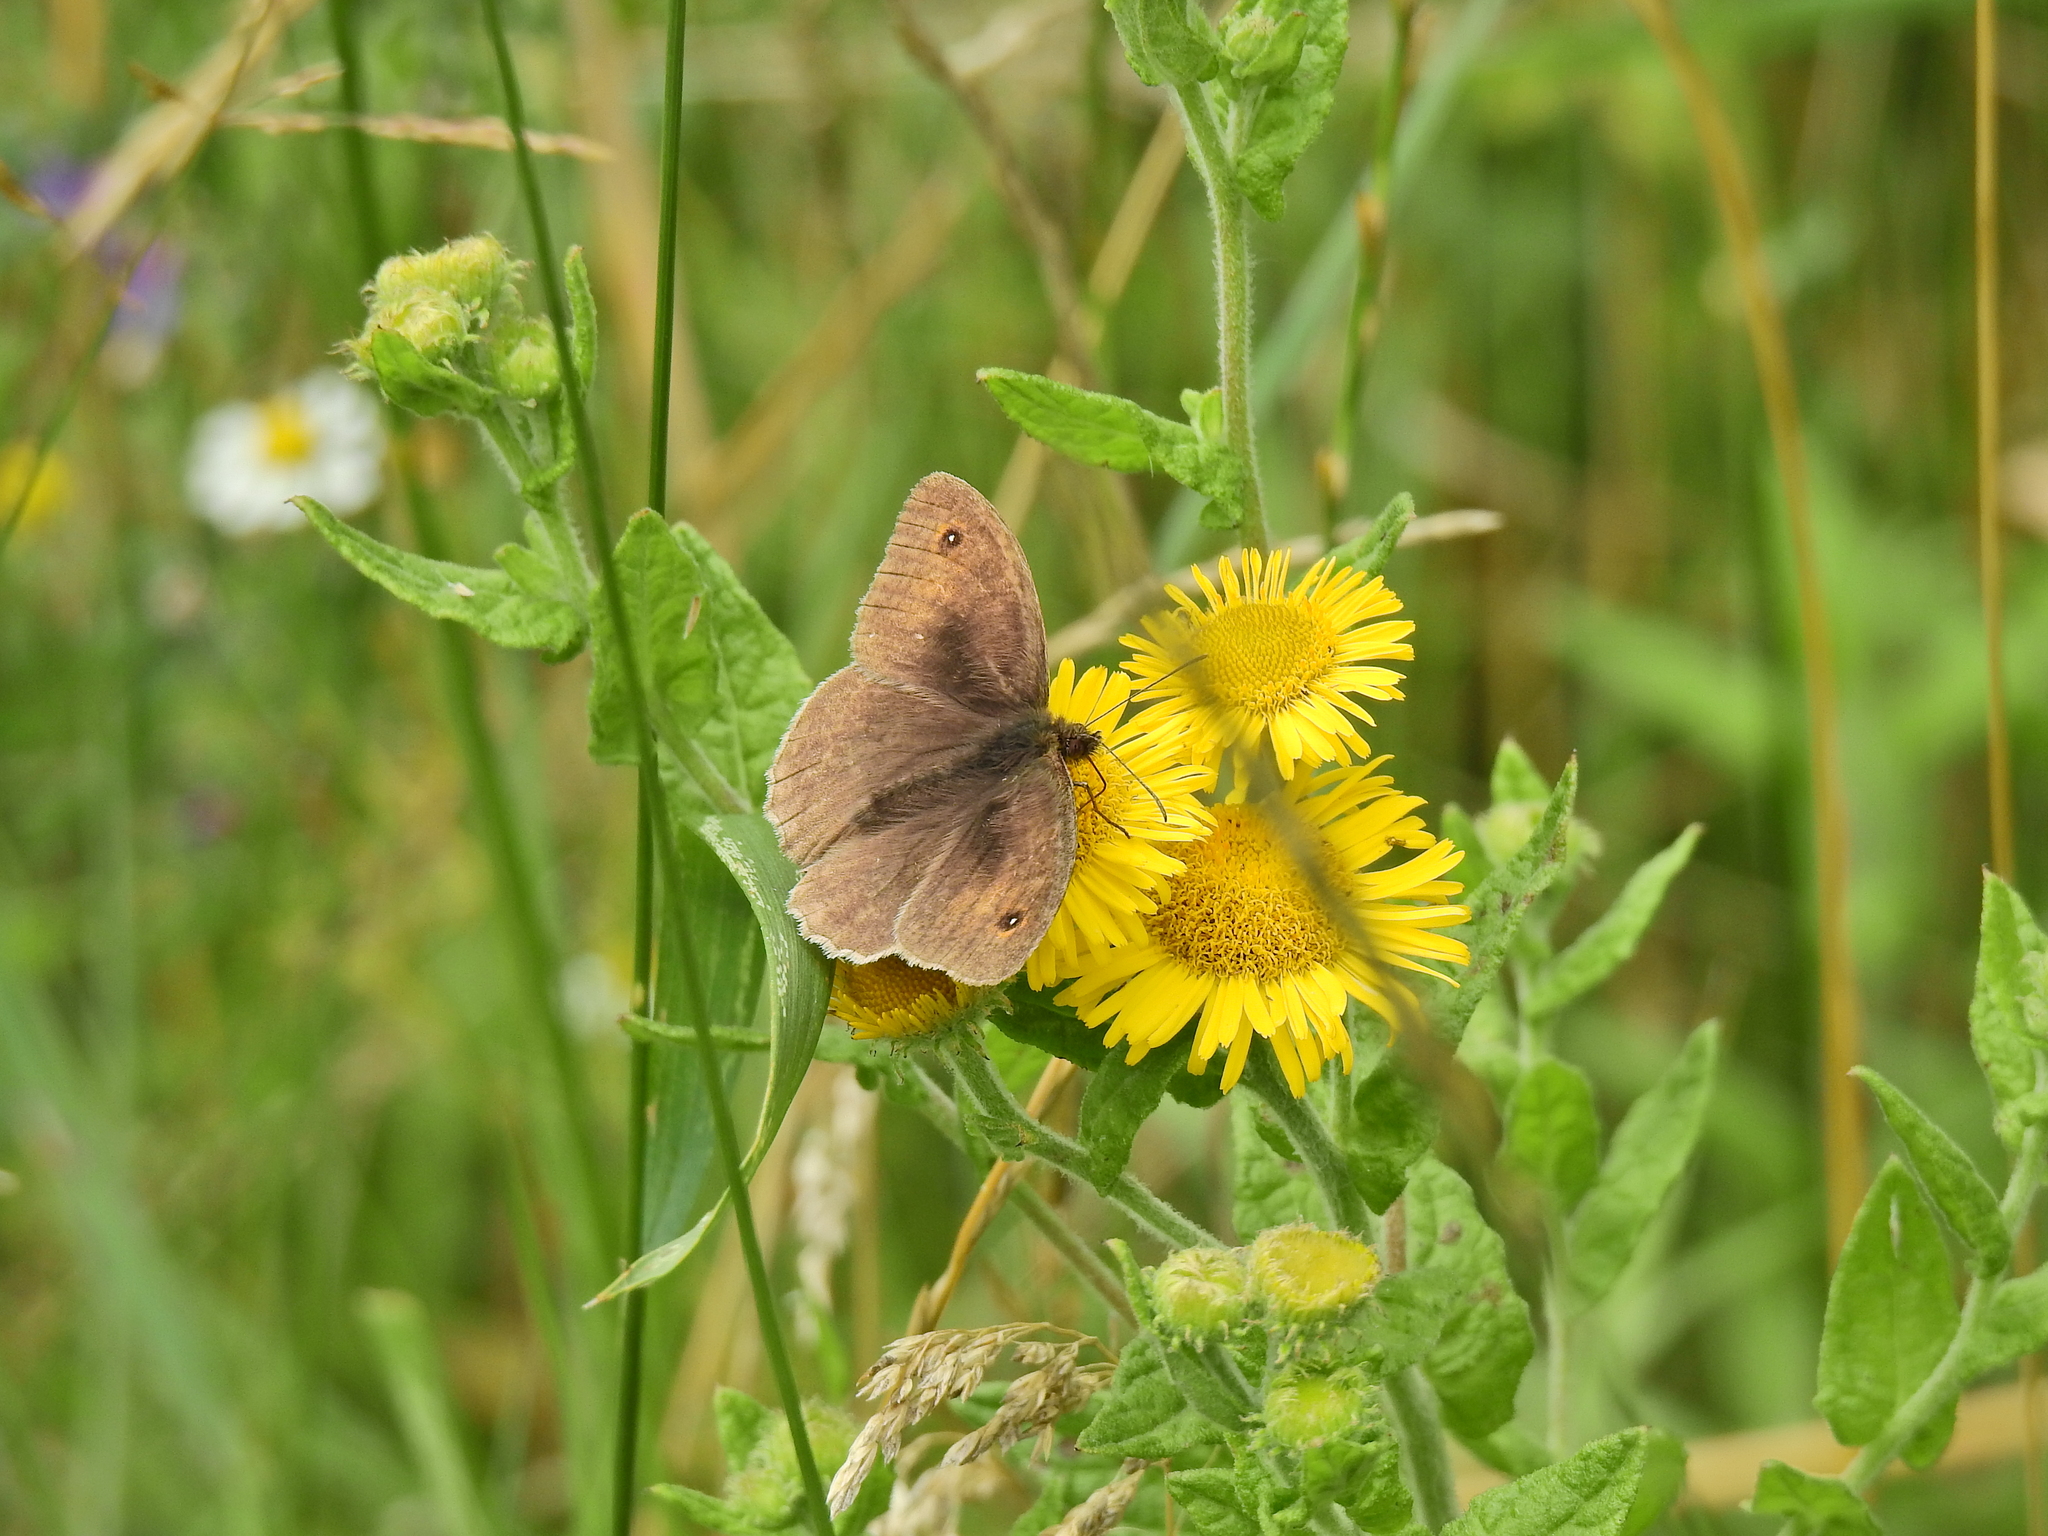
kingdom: Animalia
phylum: Arthropoda
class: Insecta
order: Lepidoptera
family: Nymphalidae
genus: Maniola
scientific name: Maniola jurtina
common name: Meadow brown
